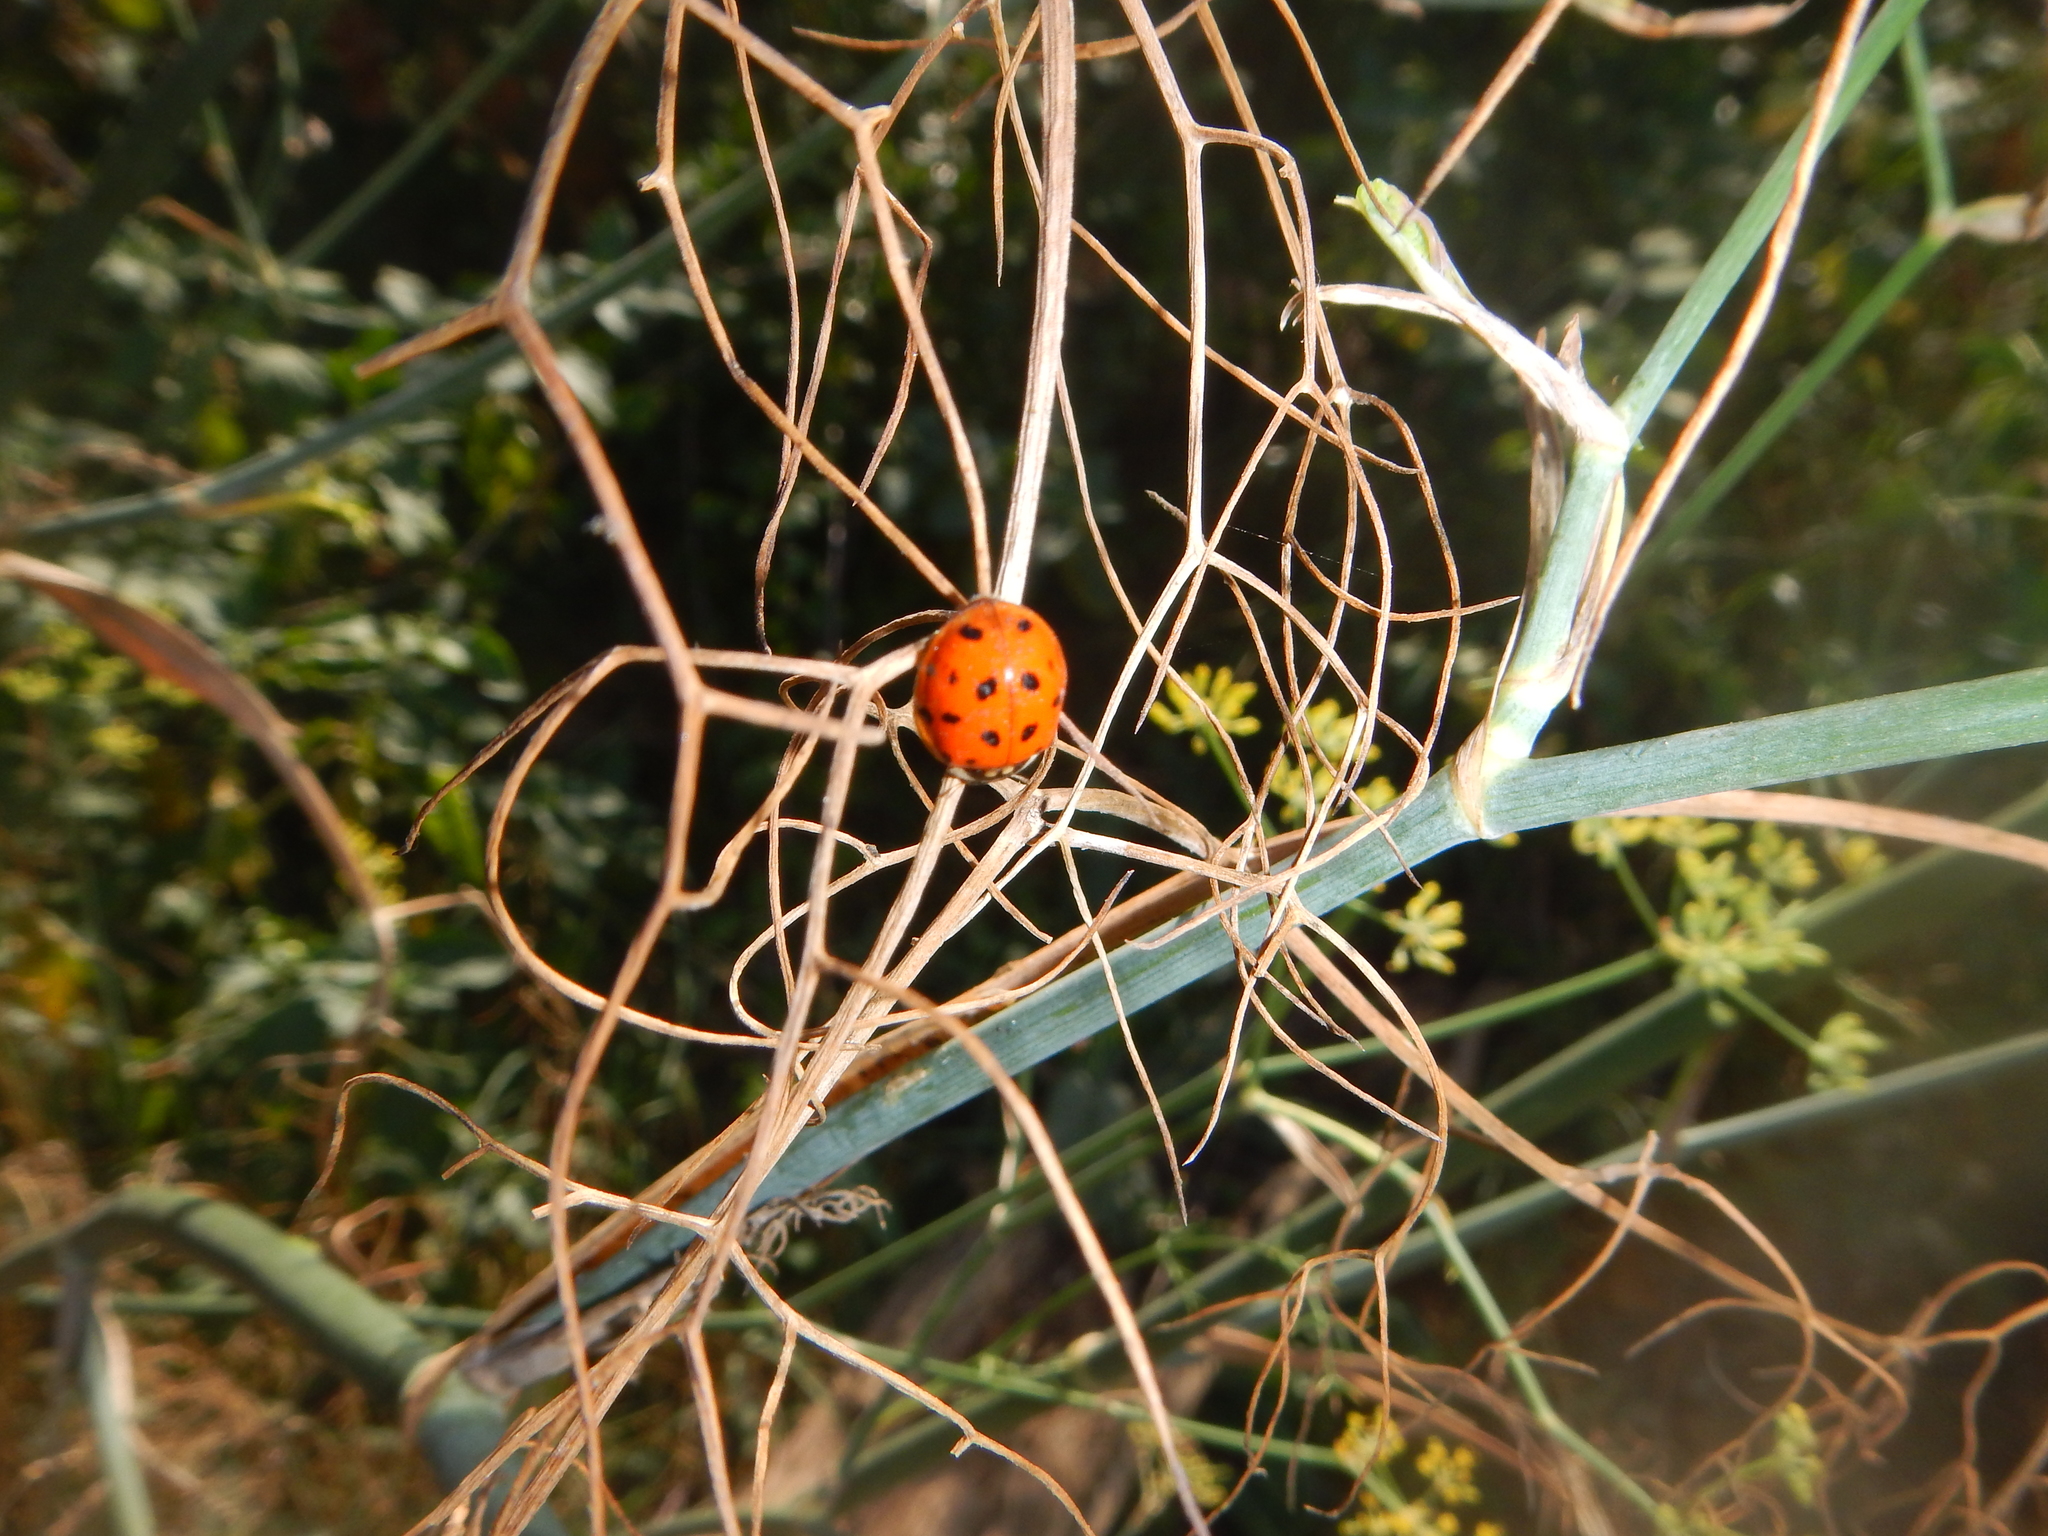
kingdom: Animalia
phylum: Arthropoda
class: Insecta
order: Coleoptera
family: Coccinellidae
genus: Harmonia
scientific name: Harmonia axyridis
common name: Harlequin ladybird
